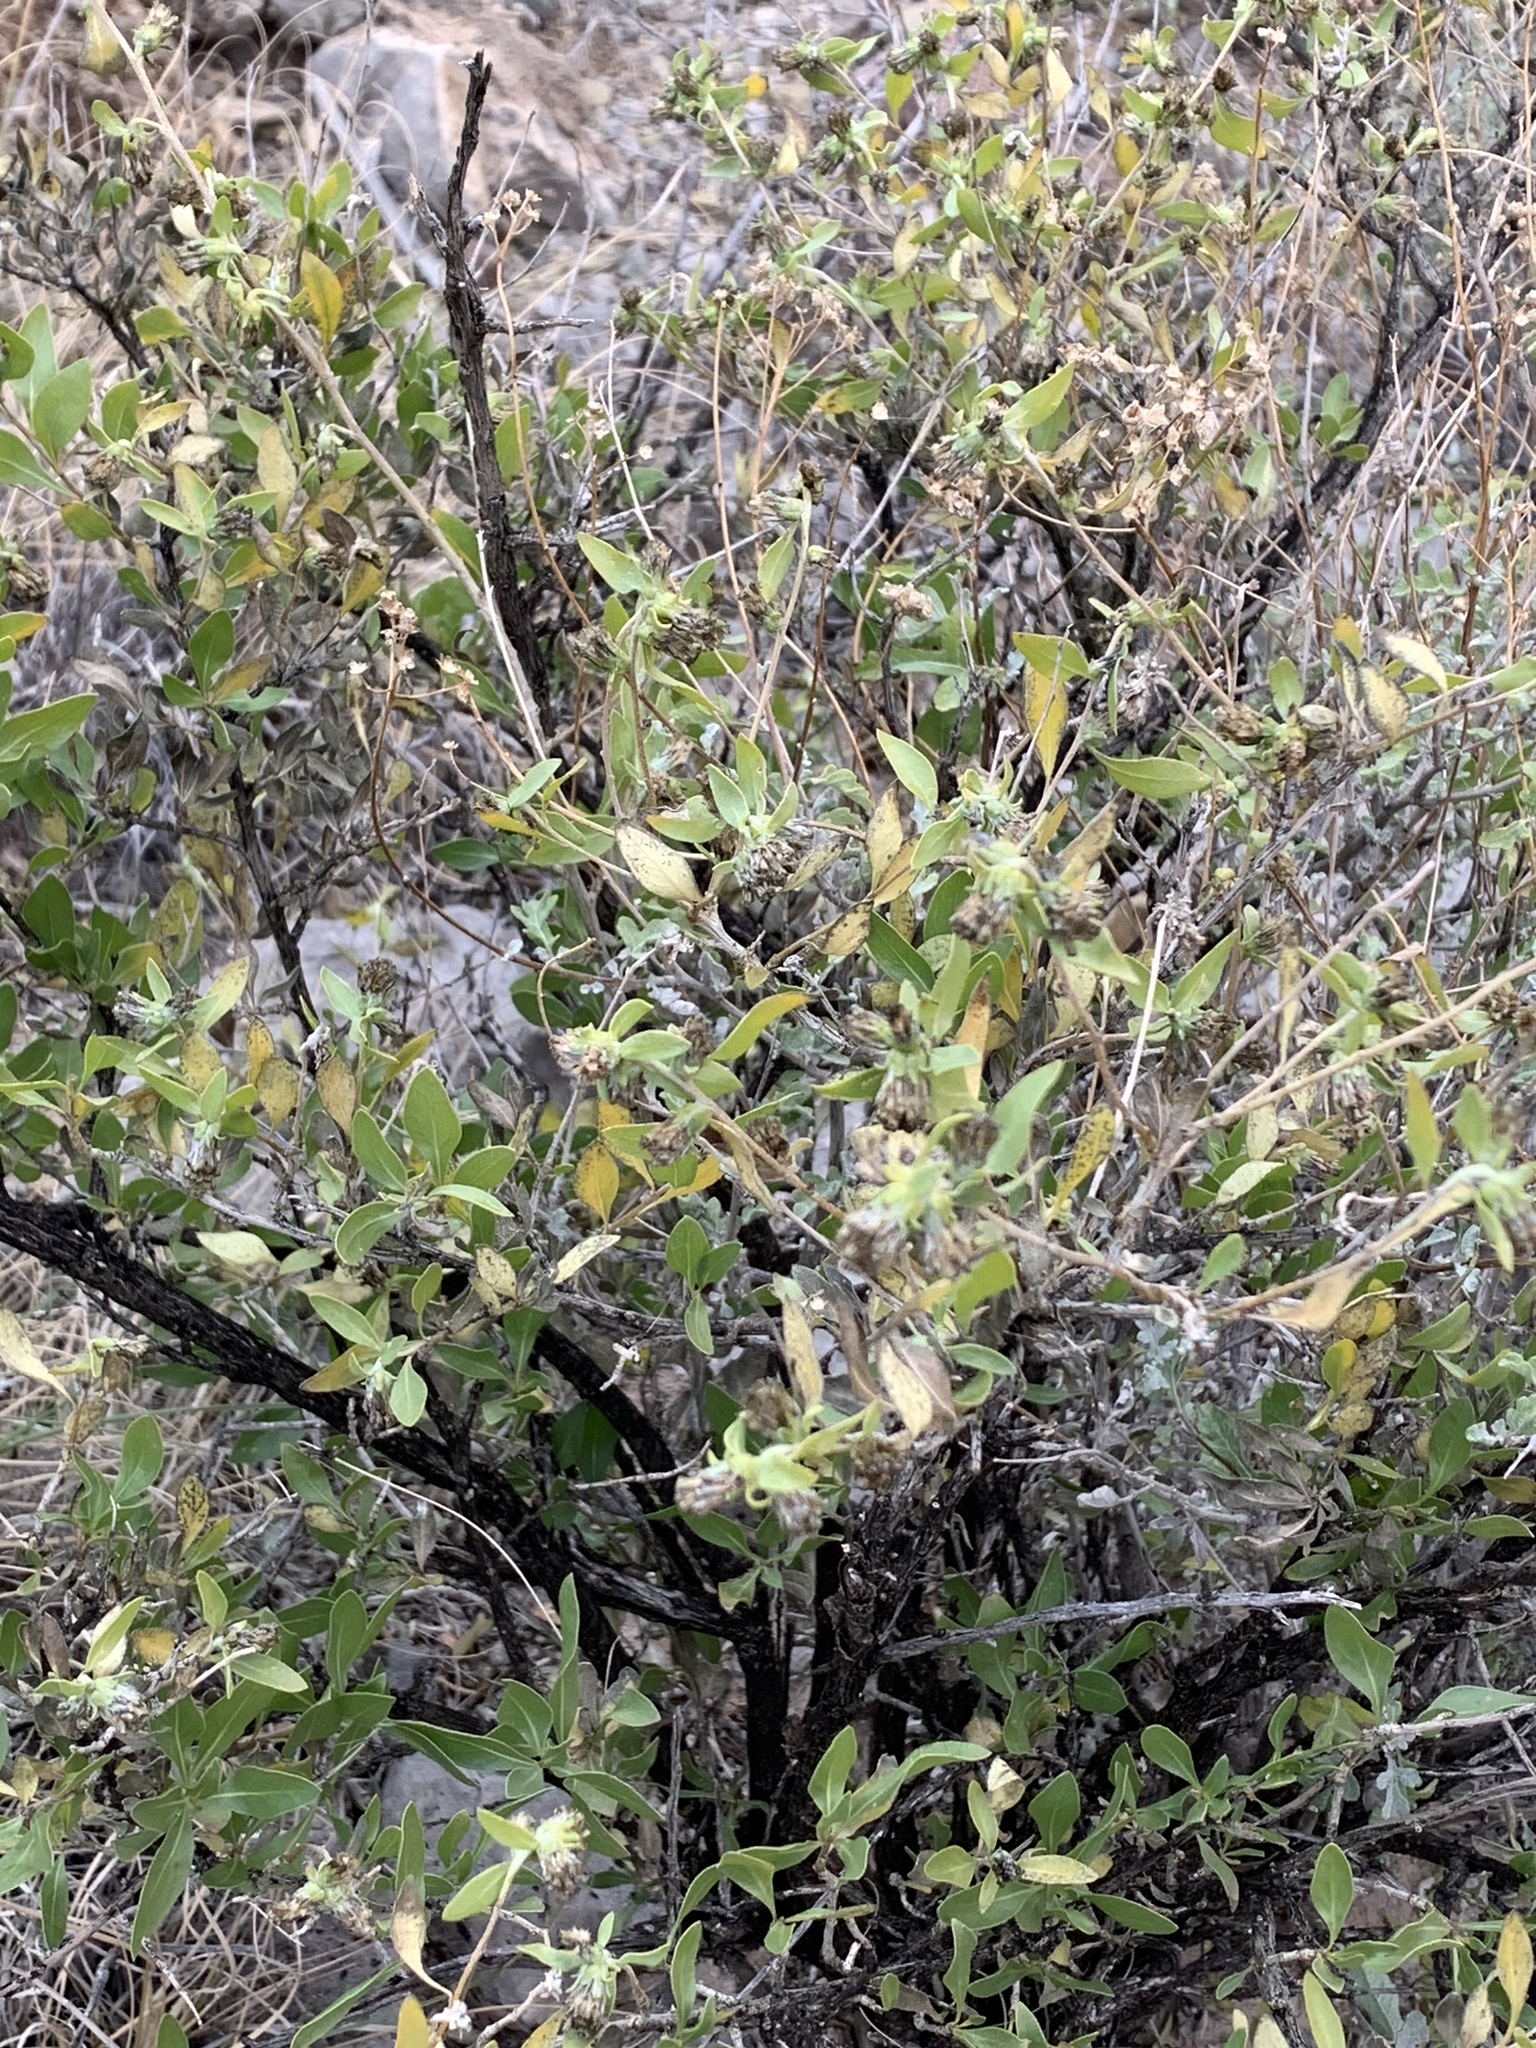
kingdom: Plantae
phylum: Tracheophyta
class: Magnoliopsida
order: Asterales
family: Asteraceae
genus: Flourensia
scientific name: Flourensia cernua
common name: Varnishbush
